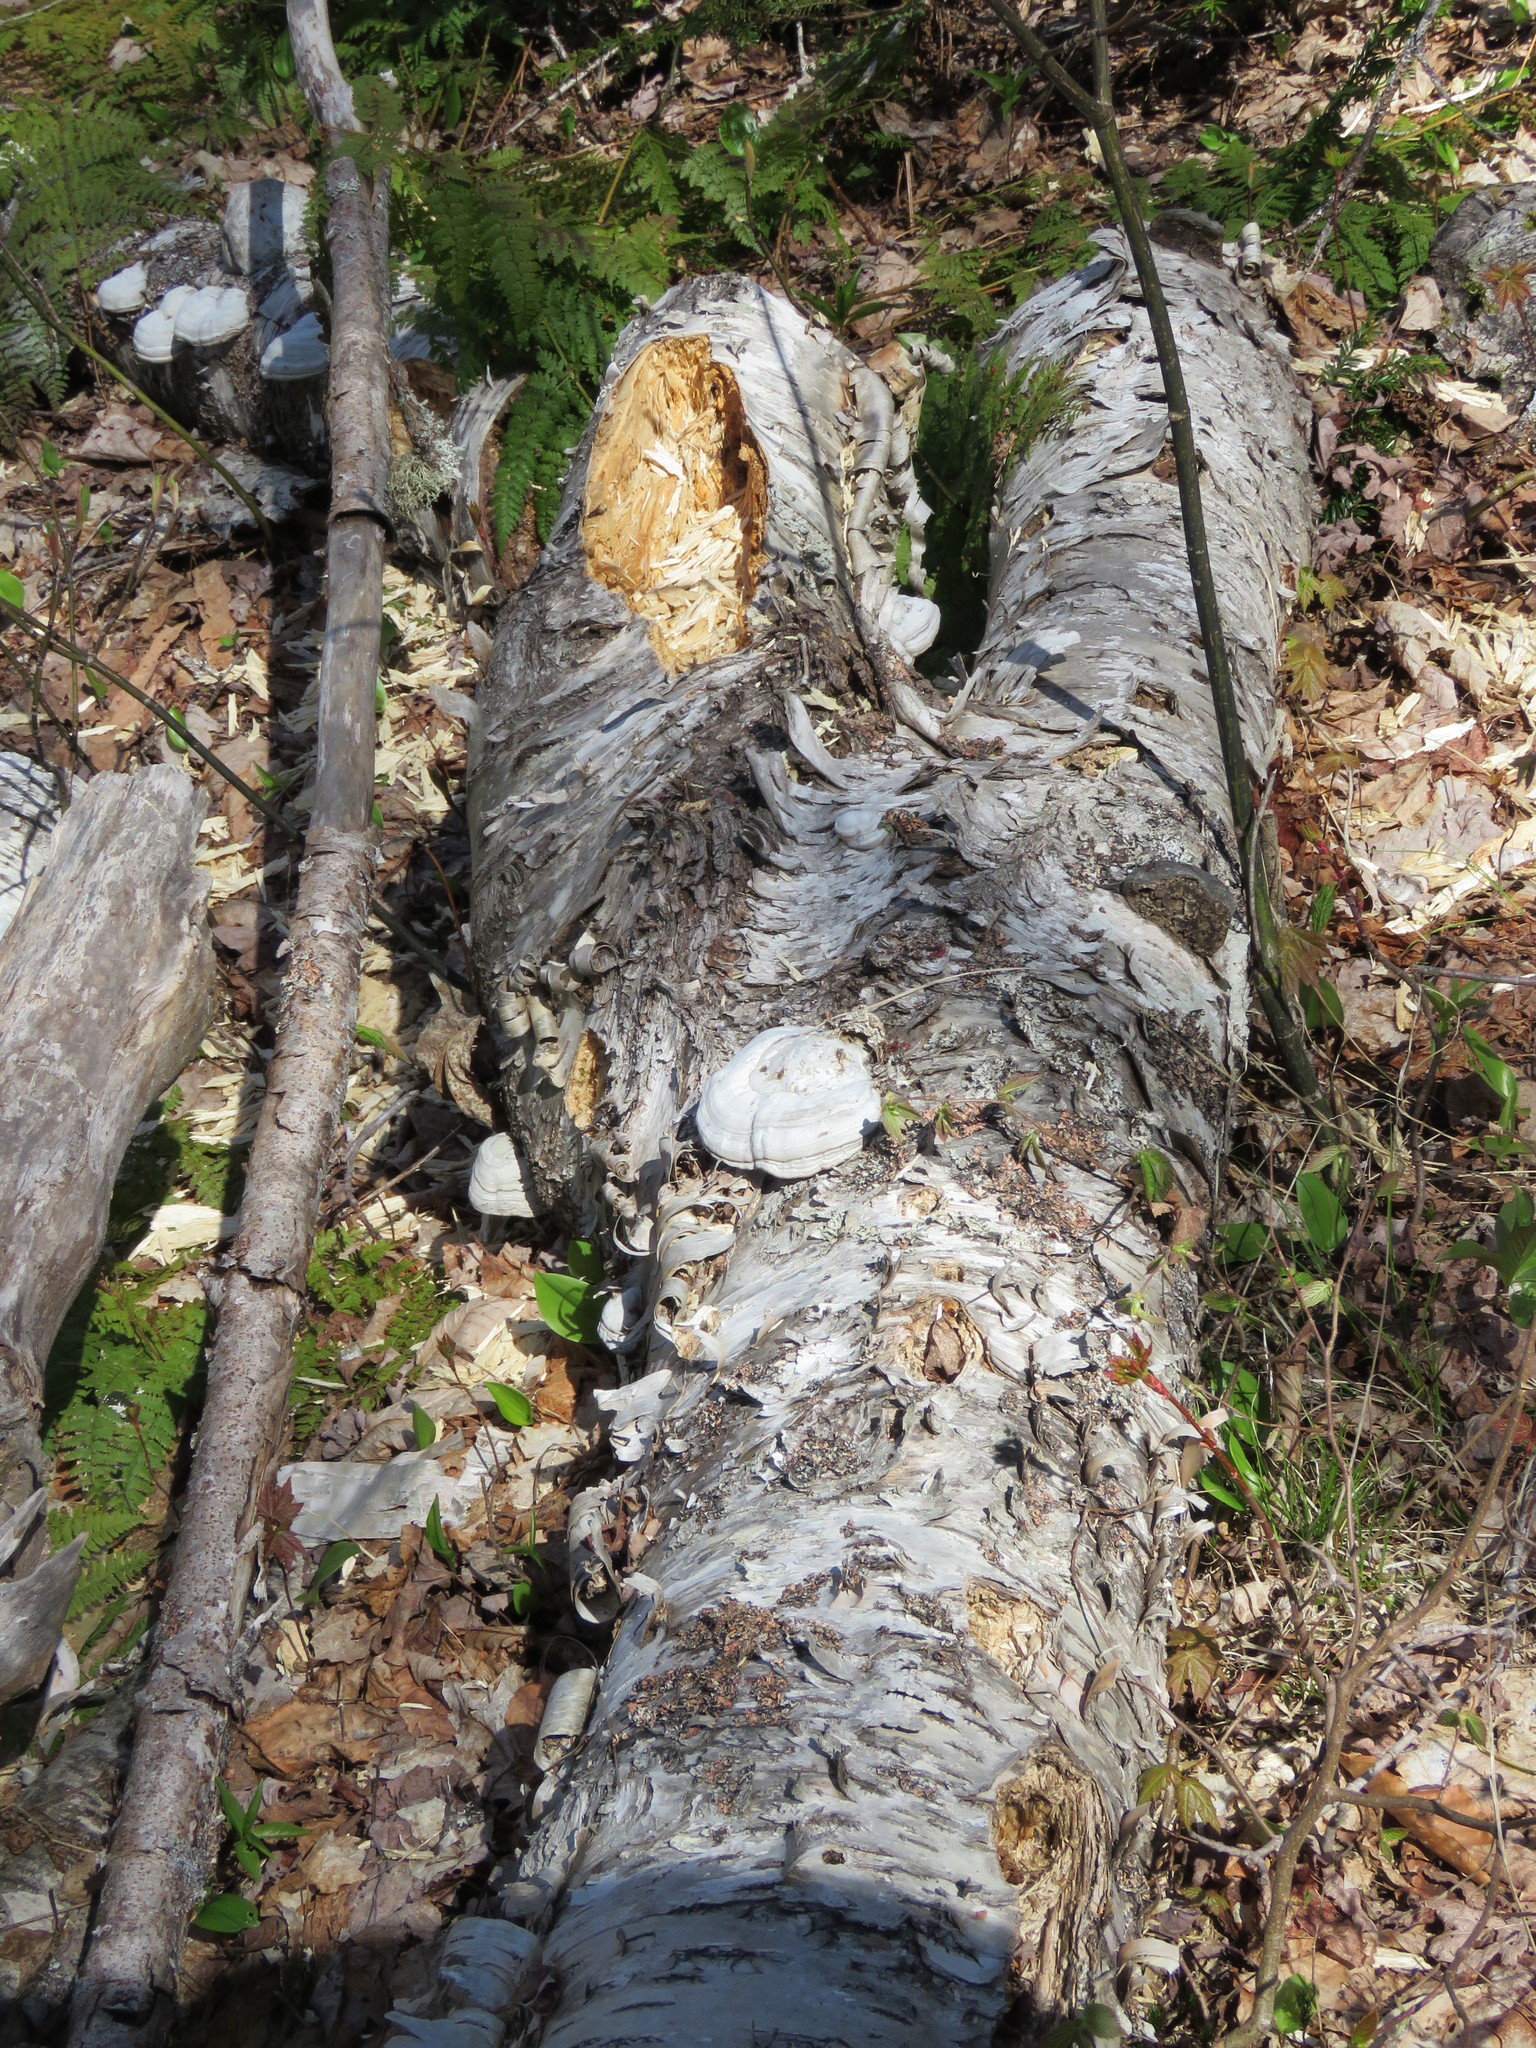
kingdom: Fungi
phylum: Basidiomycota
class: Agaricomycetes
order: Polyporales
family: Polyporaceae
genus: Fomes
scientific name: Fomes fomentarius
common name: Hoof fungus
